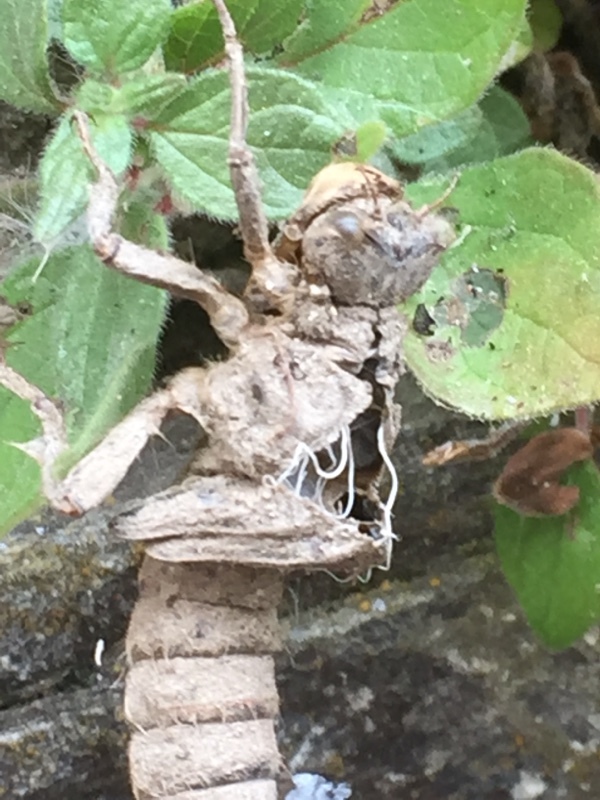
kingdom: Animalia
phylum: Arthropoda
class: Insecta
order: Odonata
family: Cordulegastridae
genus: Cordulegaster
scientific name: Cordulegaster boltonii
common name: Golden-ringed dragonfly
